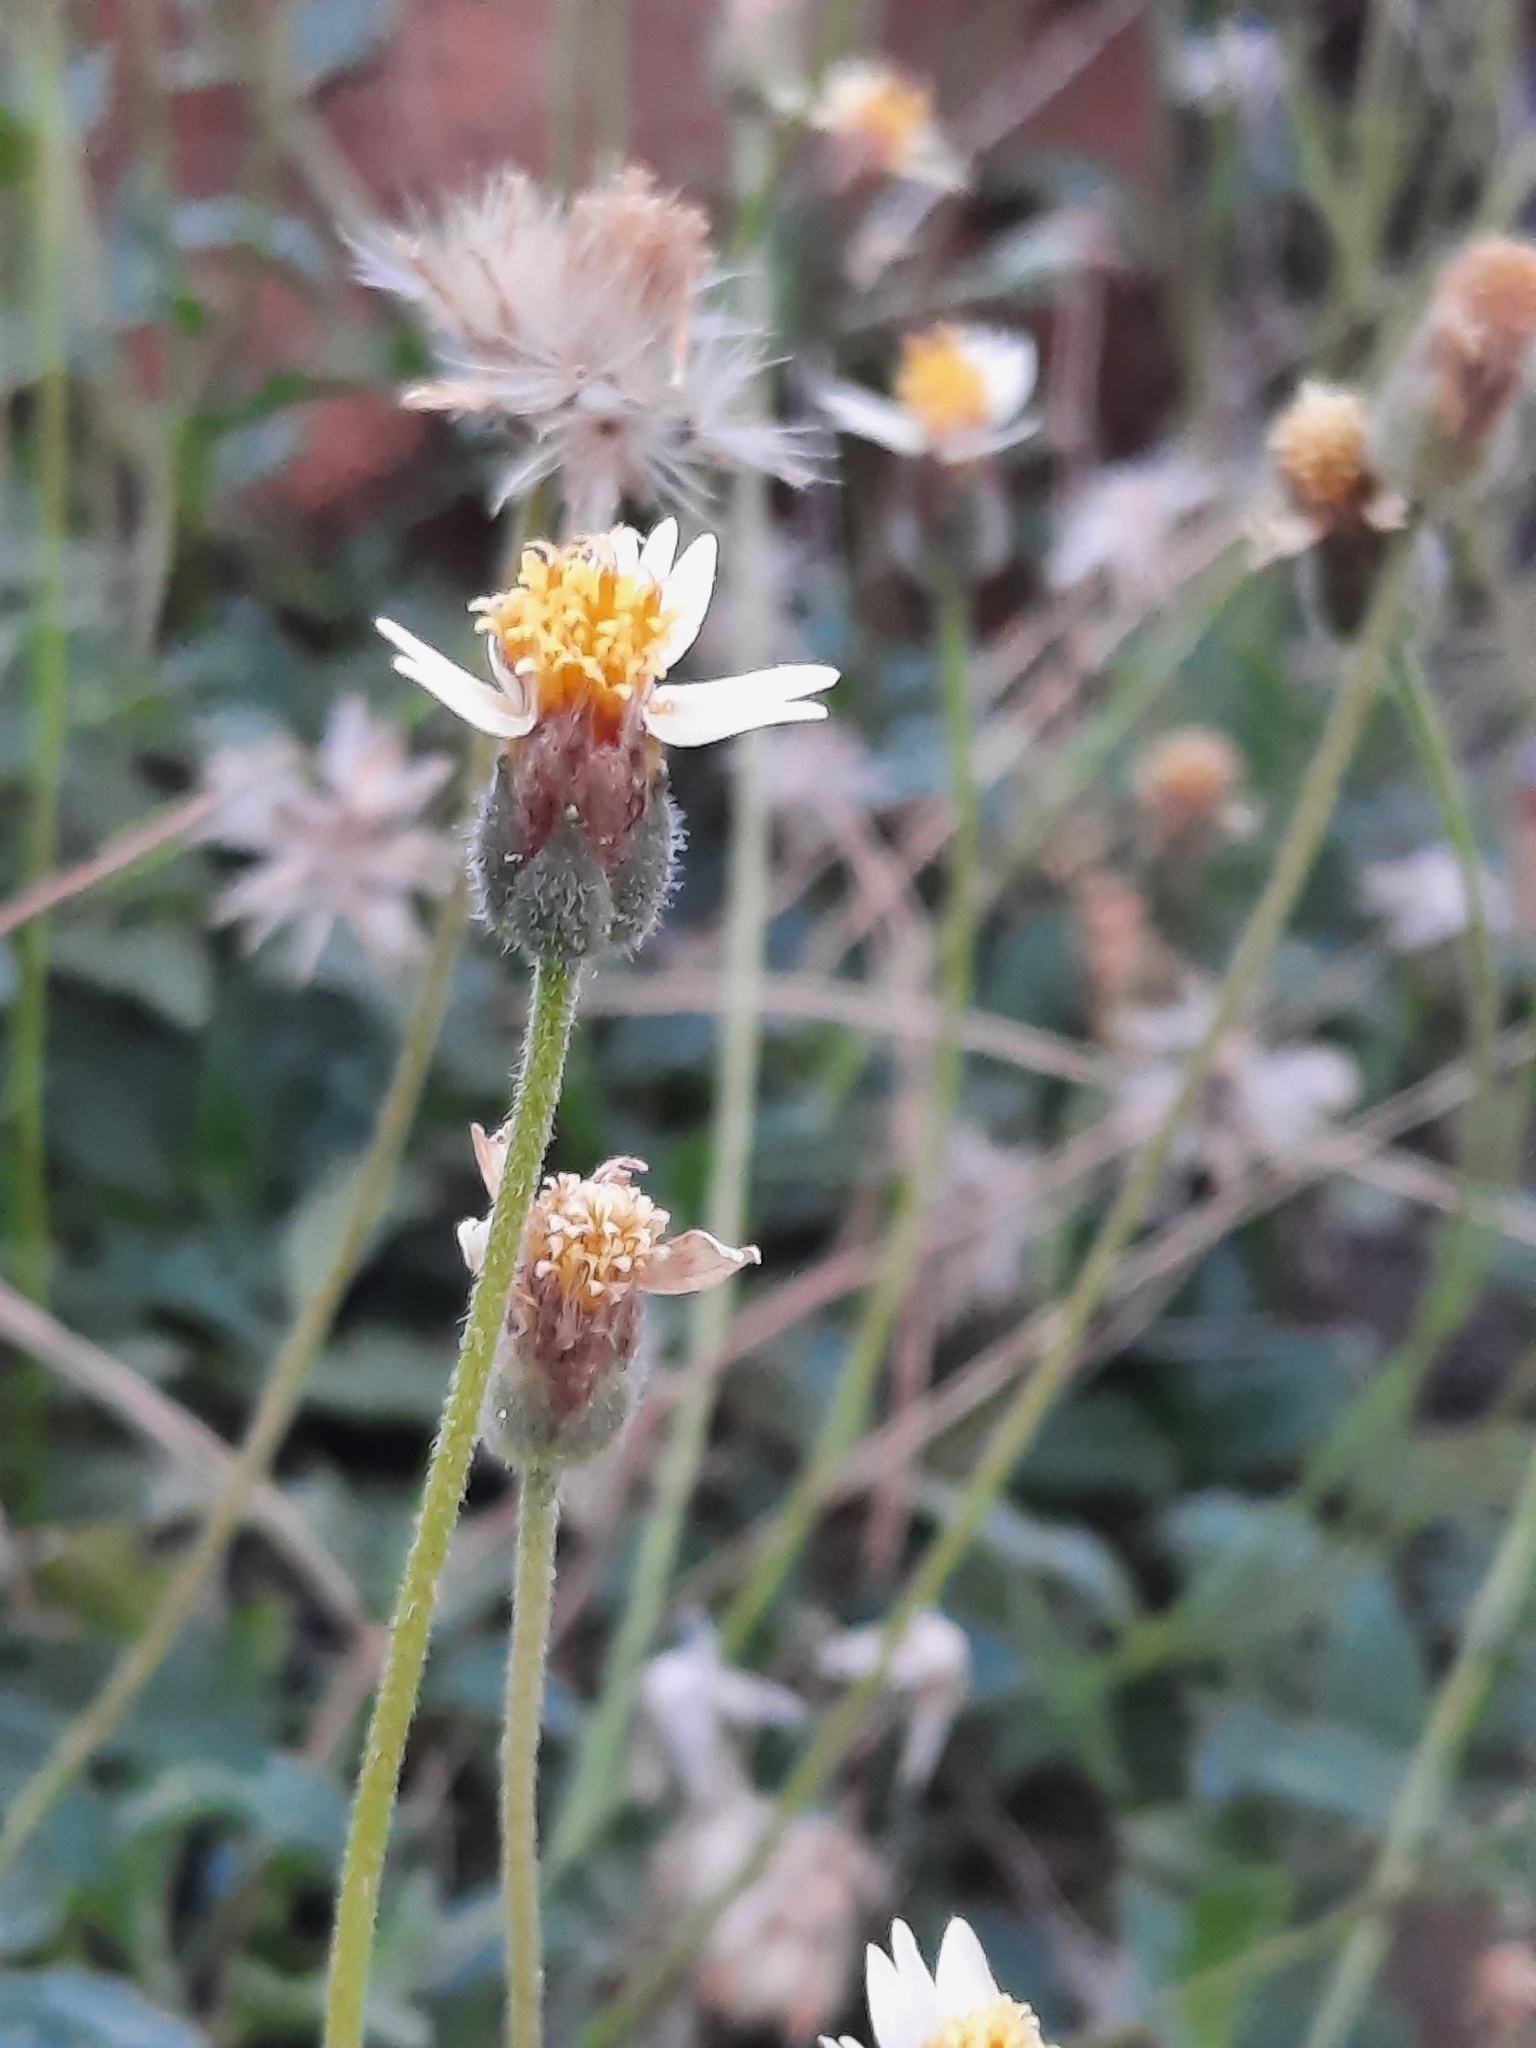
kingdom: Plantae
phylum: Tracheophyta
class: Magnoliopsida
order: Asterales
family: Asteraceae
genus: Tridax
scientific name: Tridax procumbens
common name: Coatbuttons
